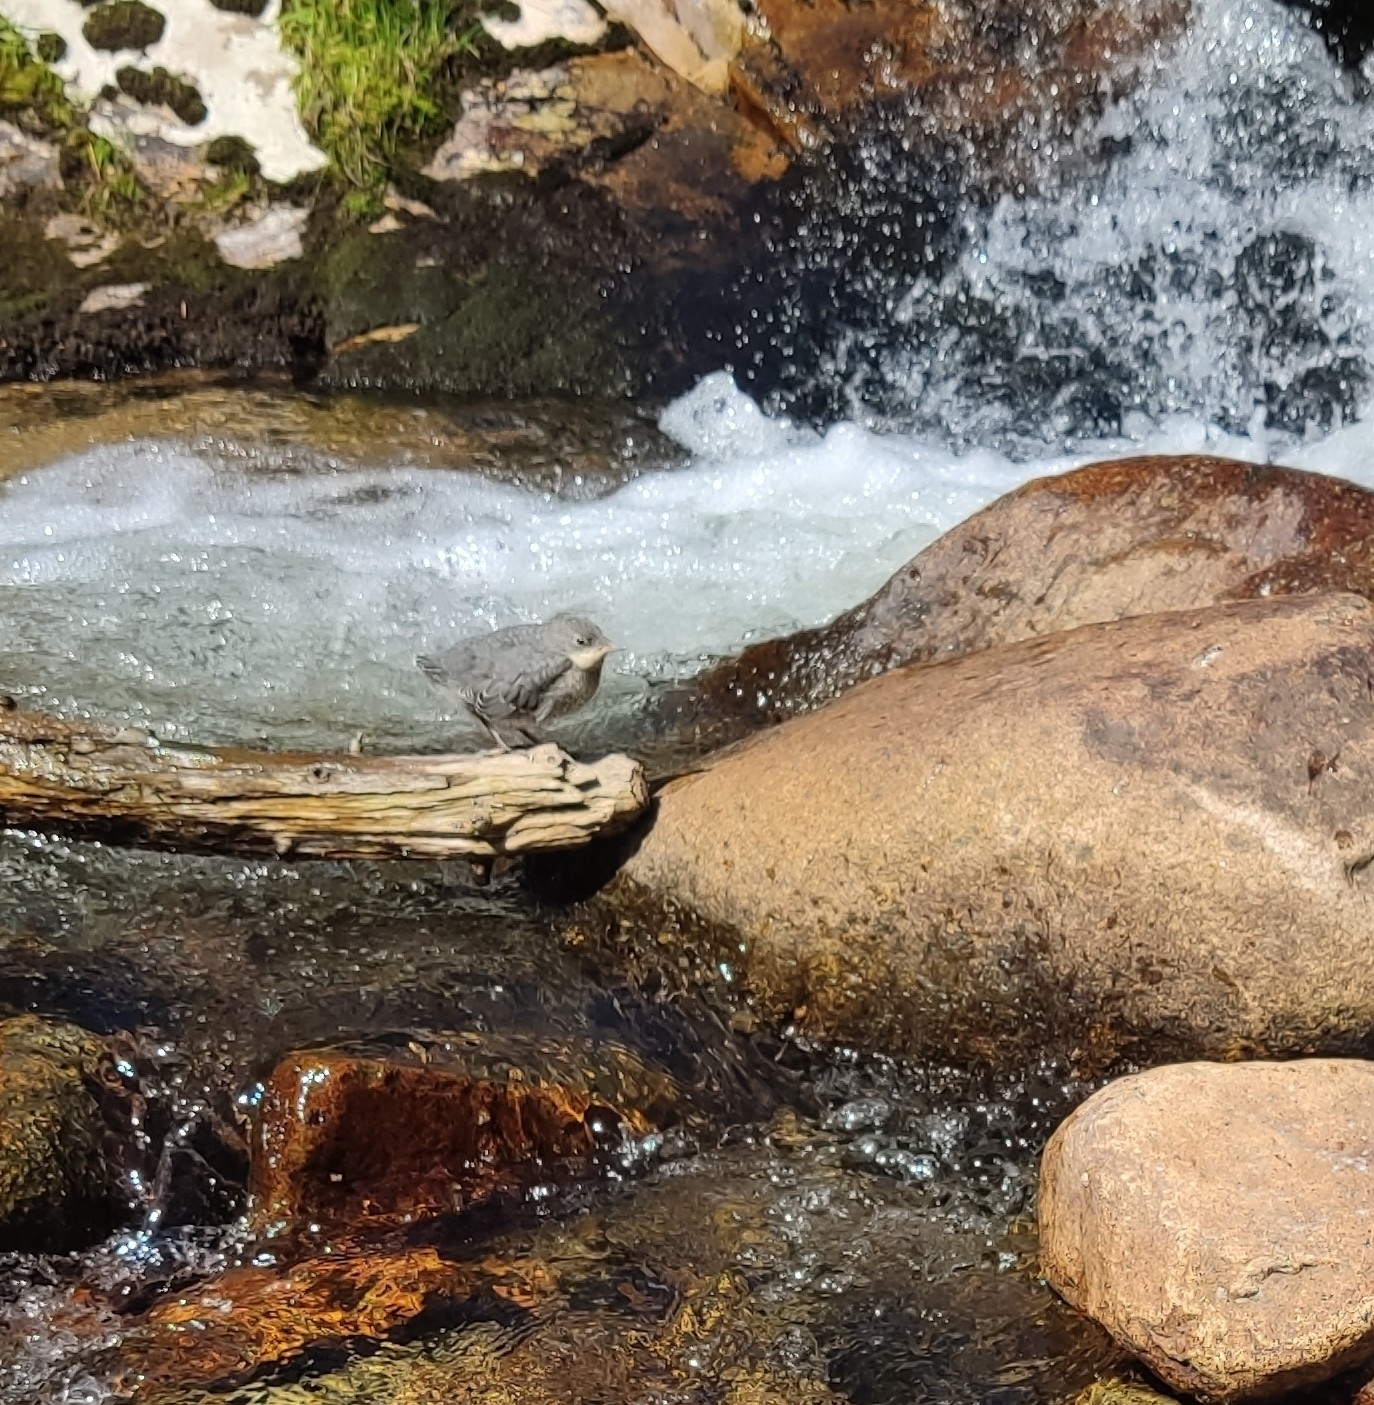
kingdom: Animalia
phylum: Chordata
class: Aves
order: Passeriformes
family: Cinclidae
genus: Cinclus
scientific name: Cinclus cinclus
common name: White-throated dipper
